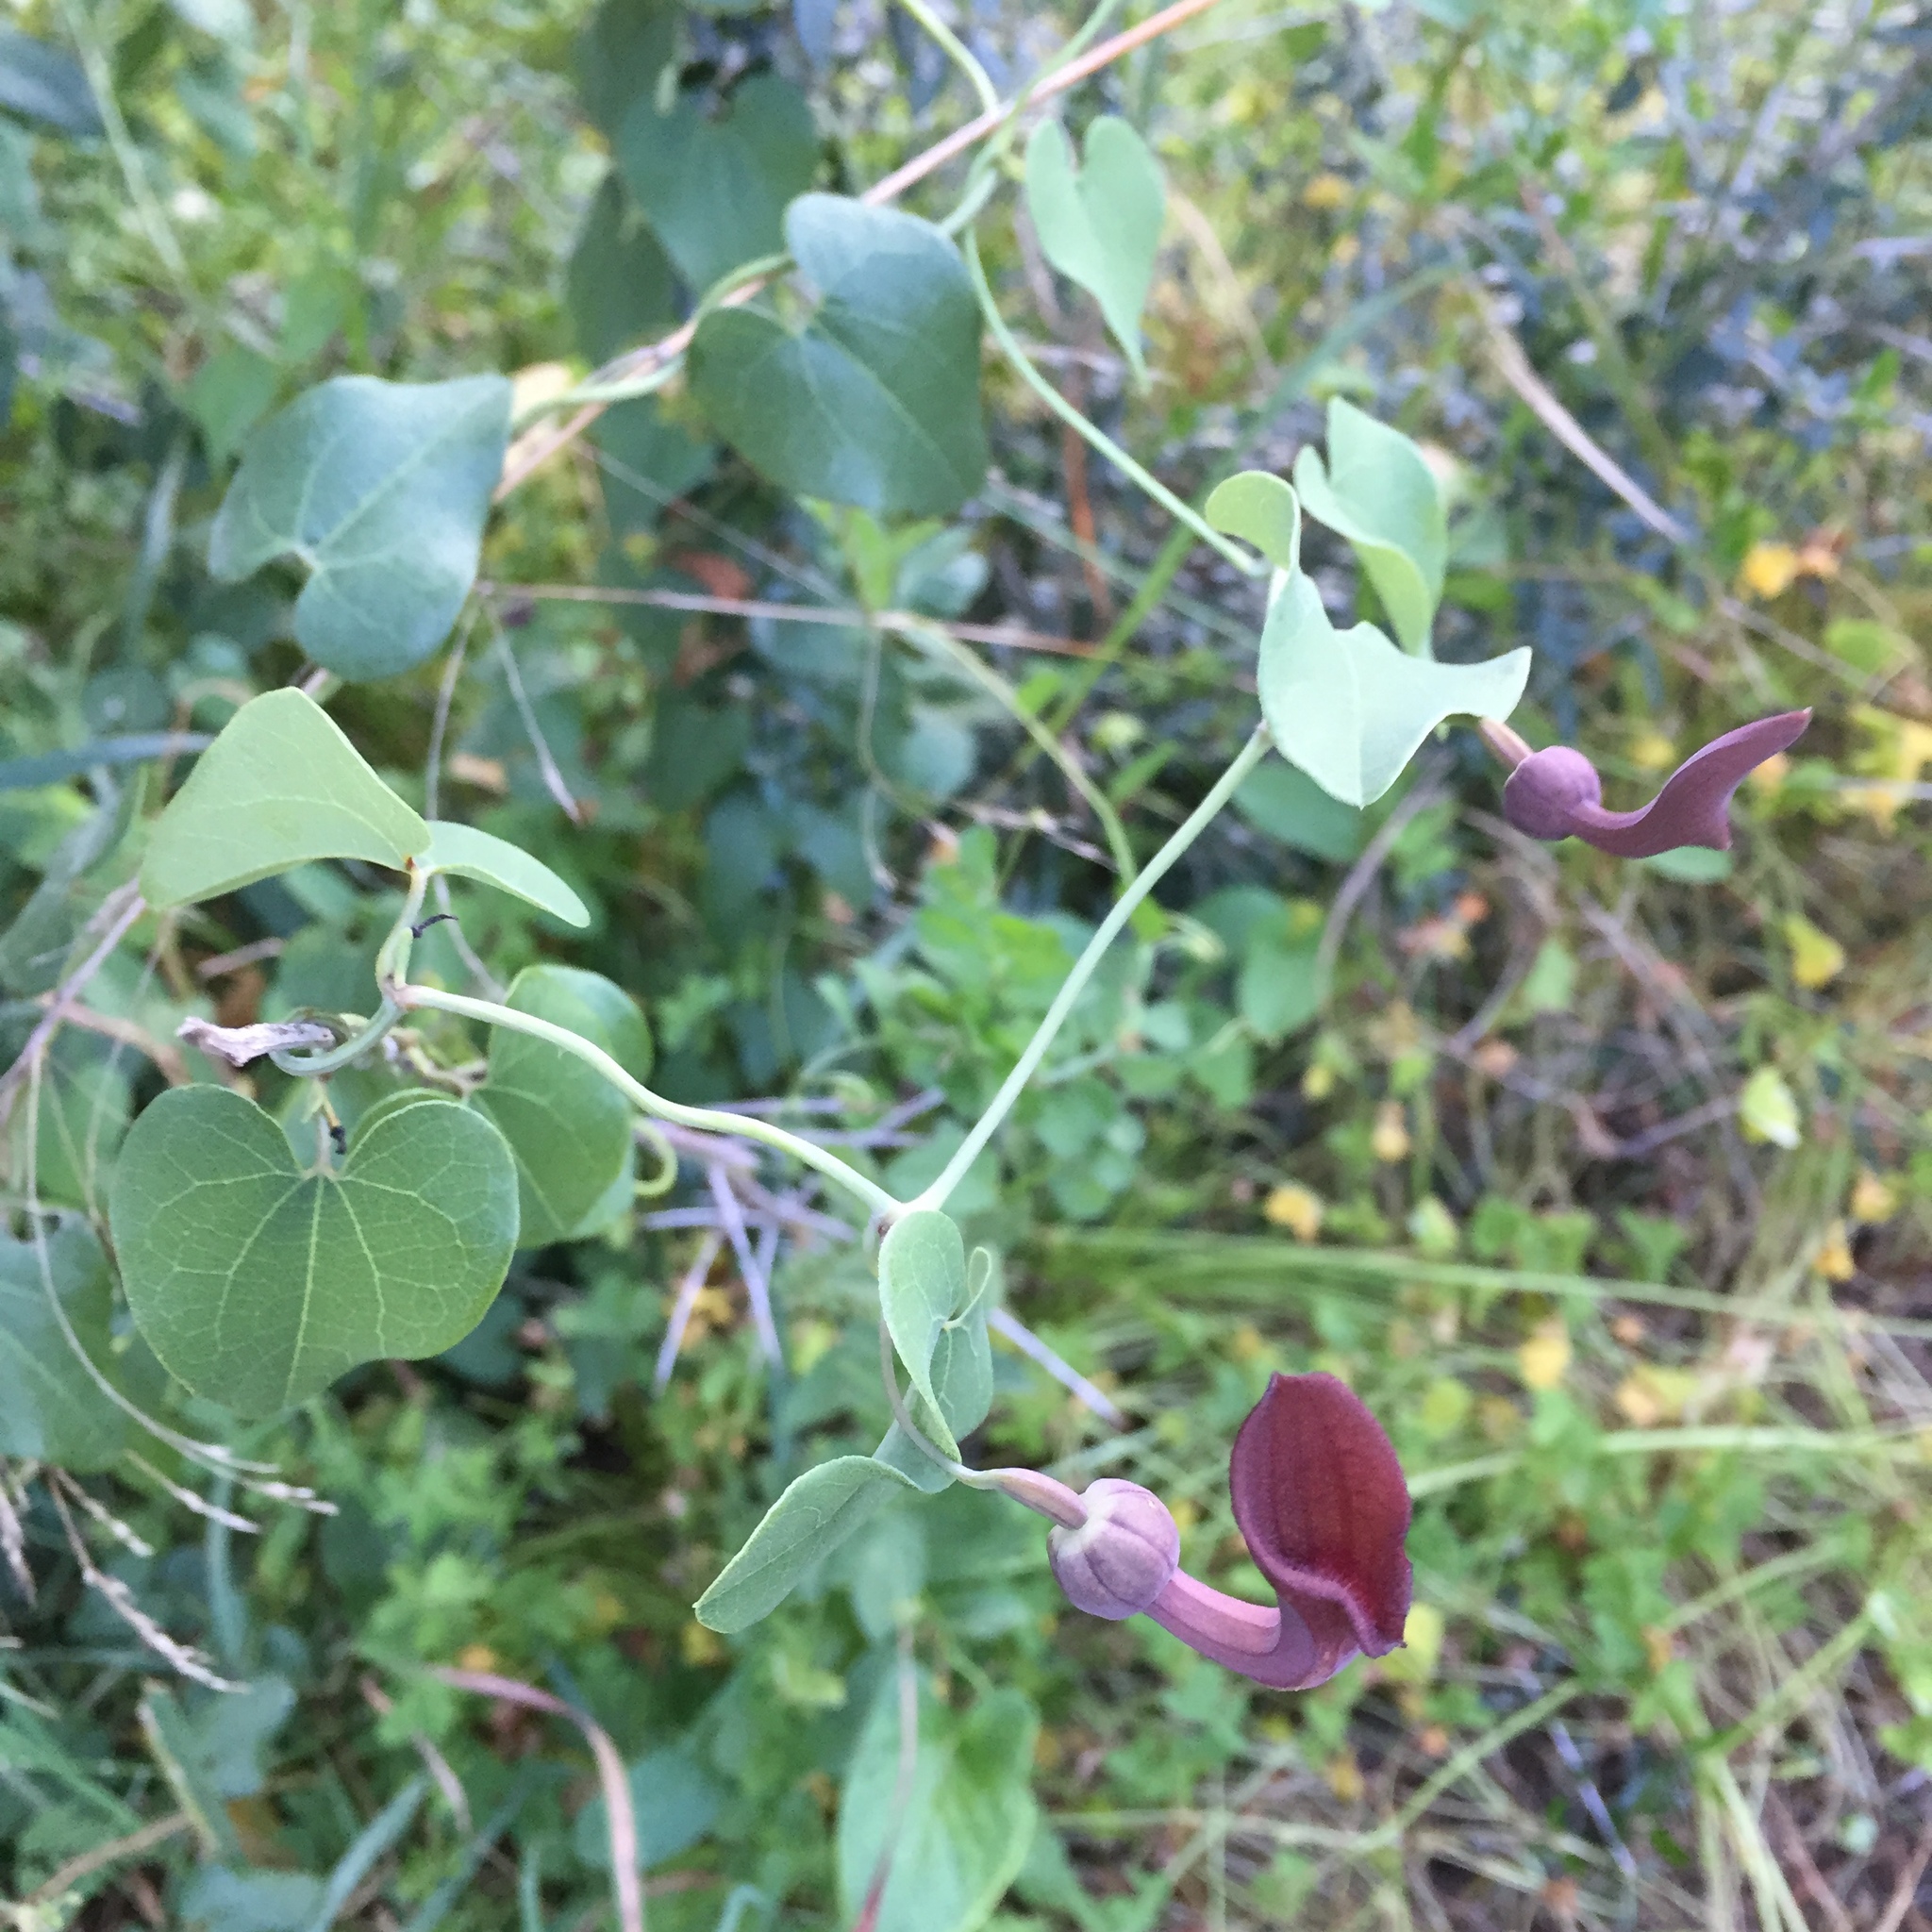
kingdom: Plantae
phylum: Tracheophyta
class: Magnoliopsida
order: Piperales
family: Aristolochiaceae
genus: Aristolochia
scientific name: Aristolochia baetica
